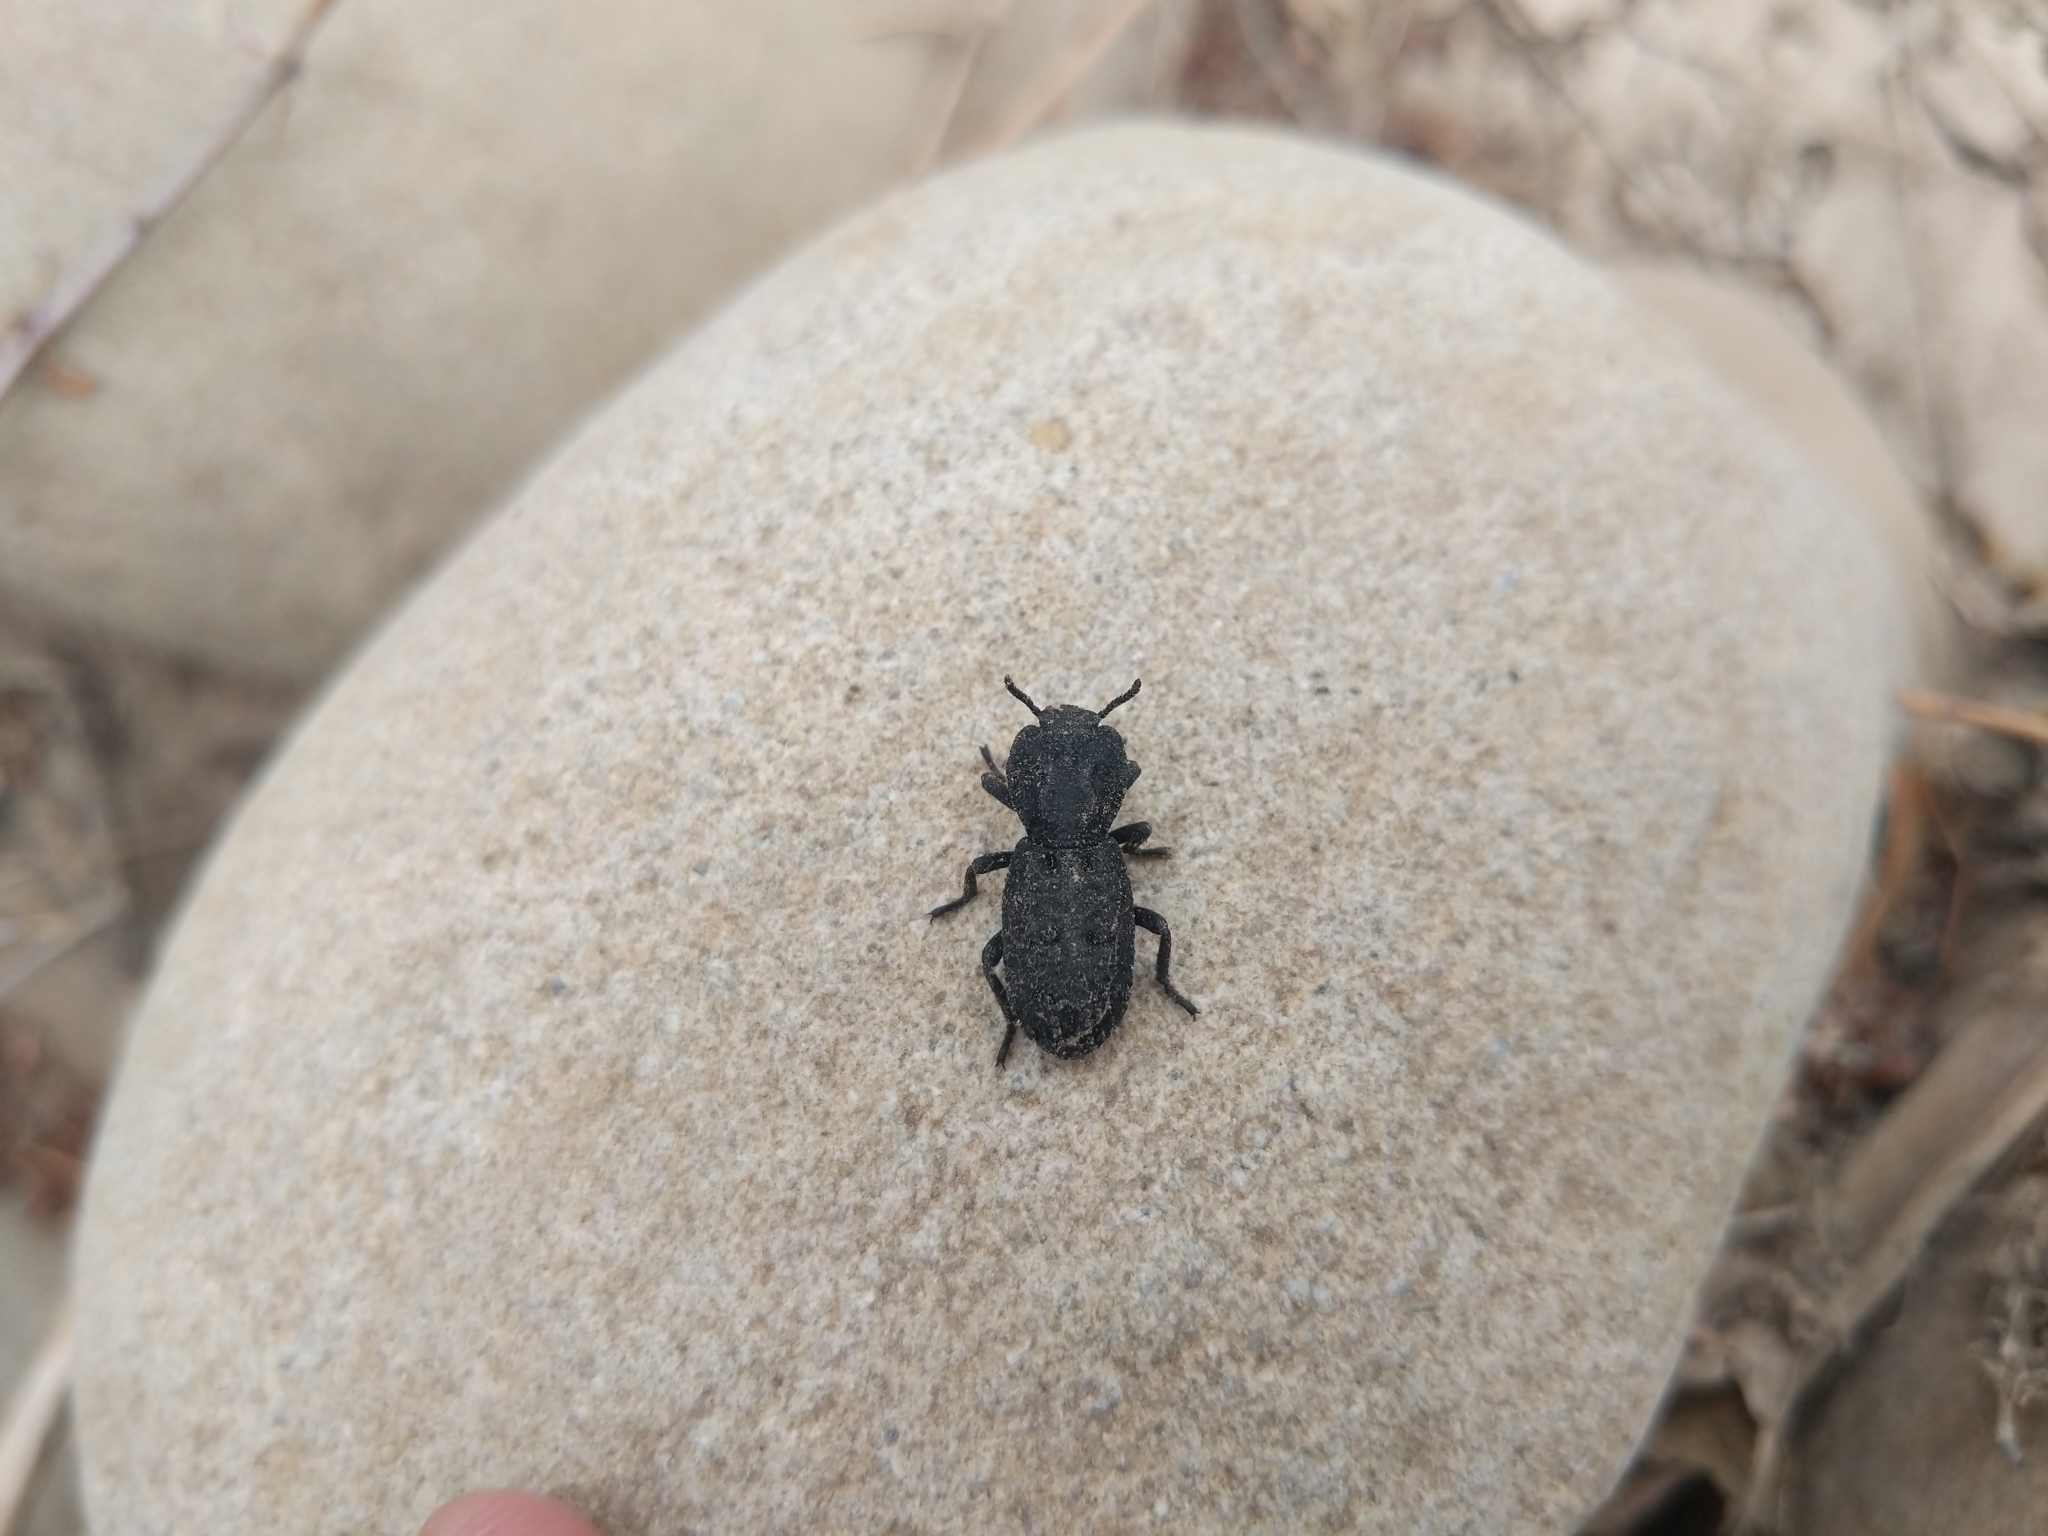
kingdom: Animalia
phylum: Arthropoda
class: Insecta
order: Coleoptera
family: Zopheridae
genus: Phloeodes
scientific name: Phloeodes diabolicus
